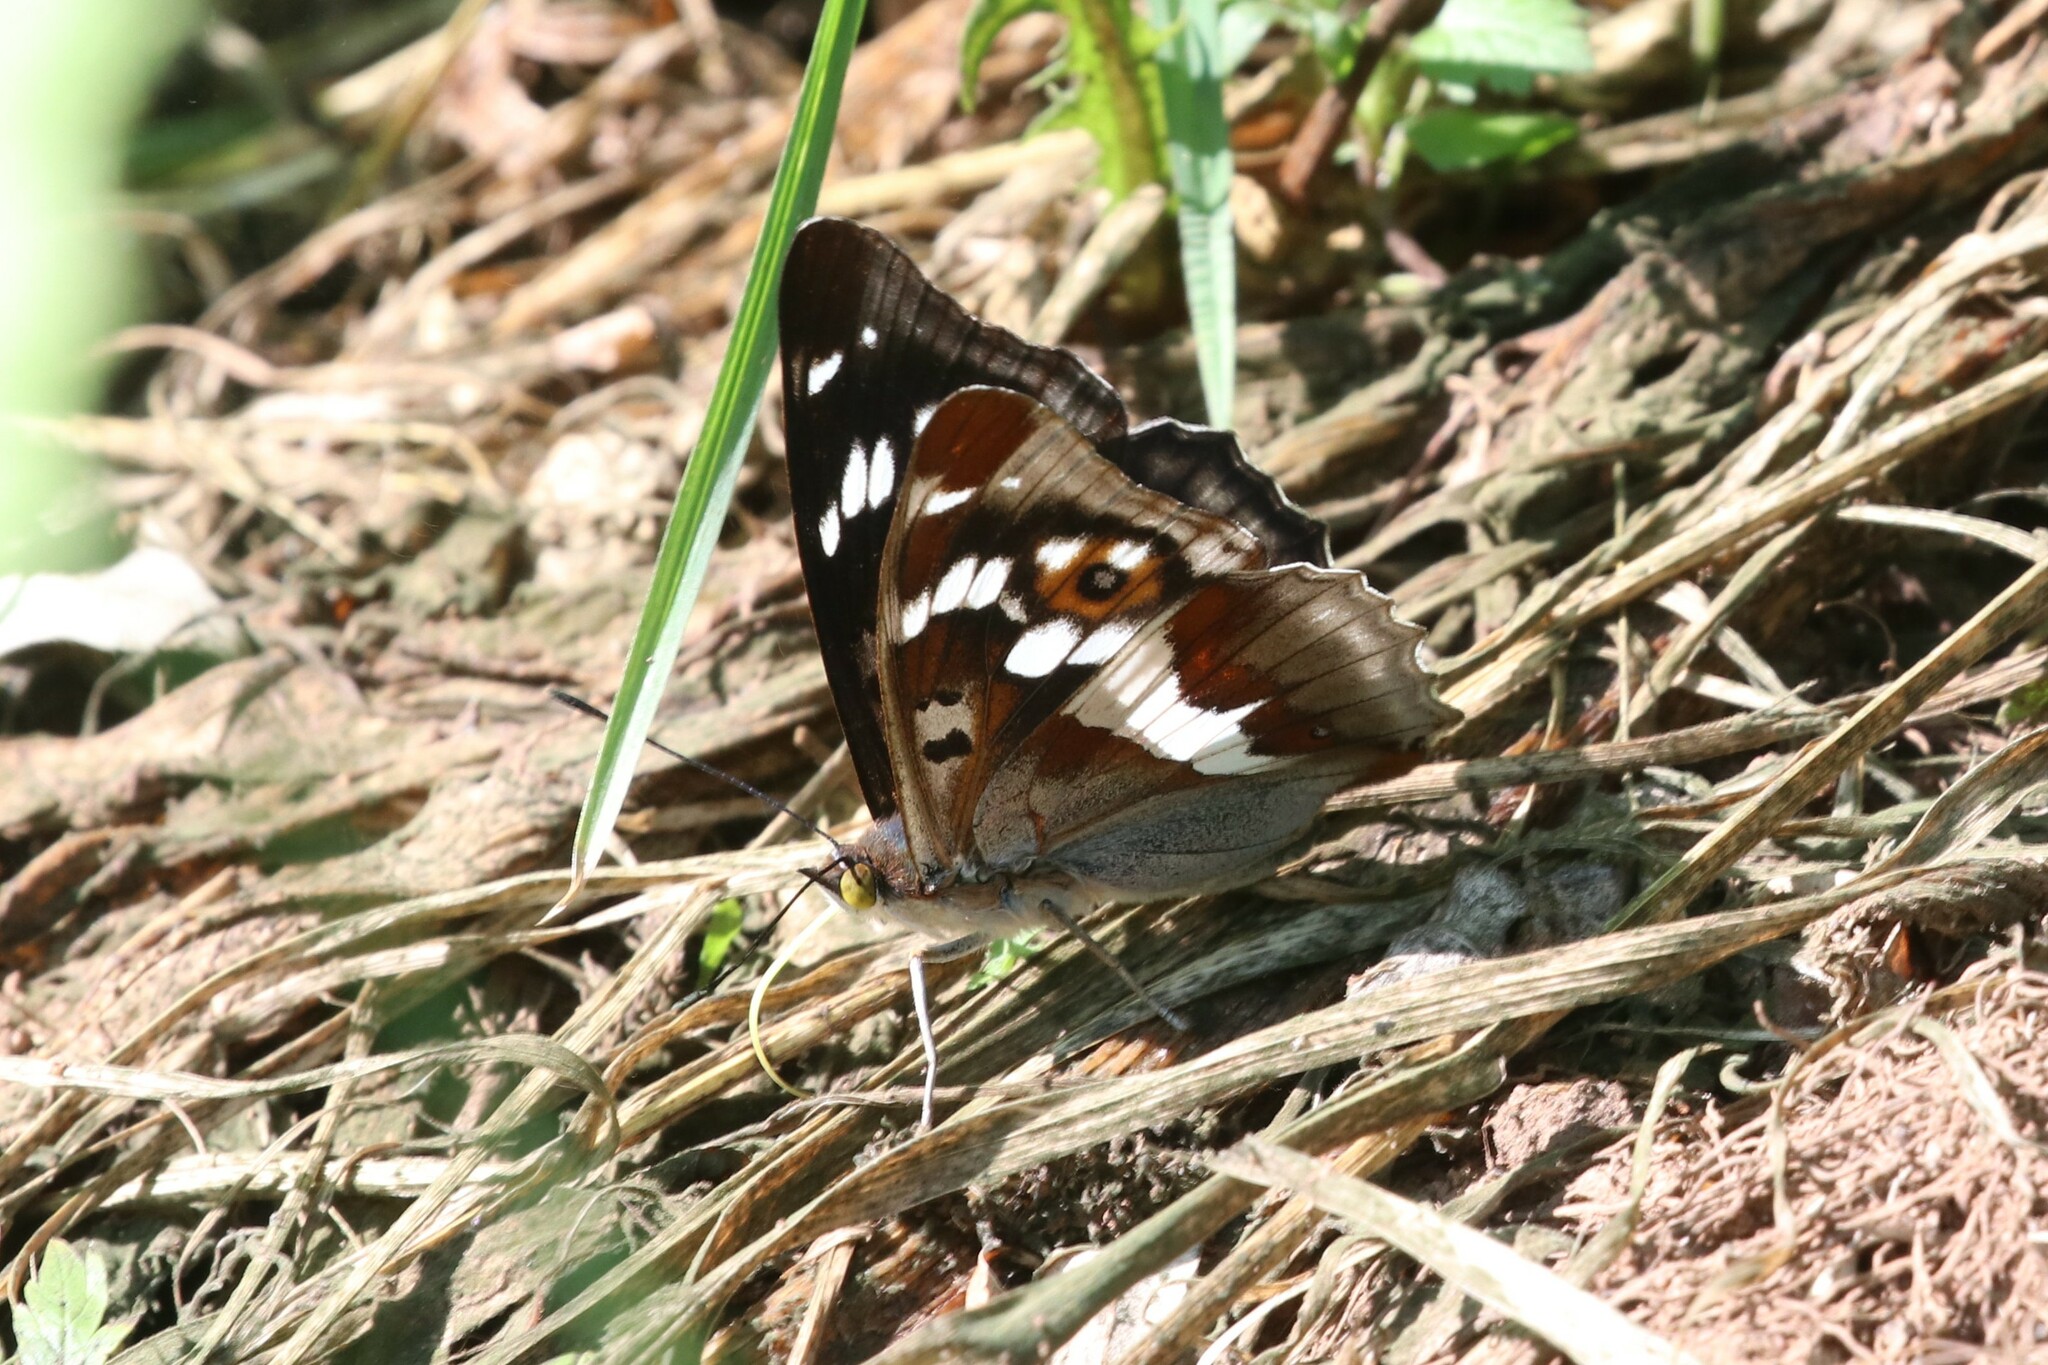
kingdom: Animalia
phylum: Arthropoda
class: Insecta
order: Lepidoptera
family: Nymphalidae
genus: Apatura
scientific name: Apatura iris
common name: Purple emperor
